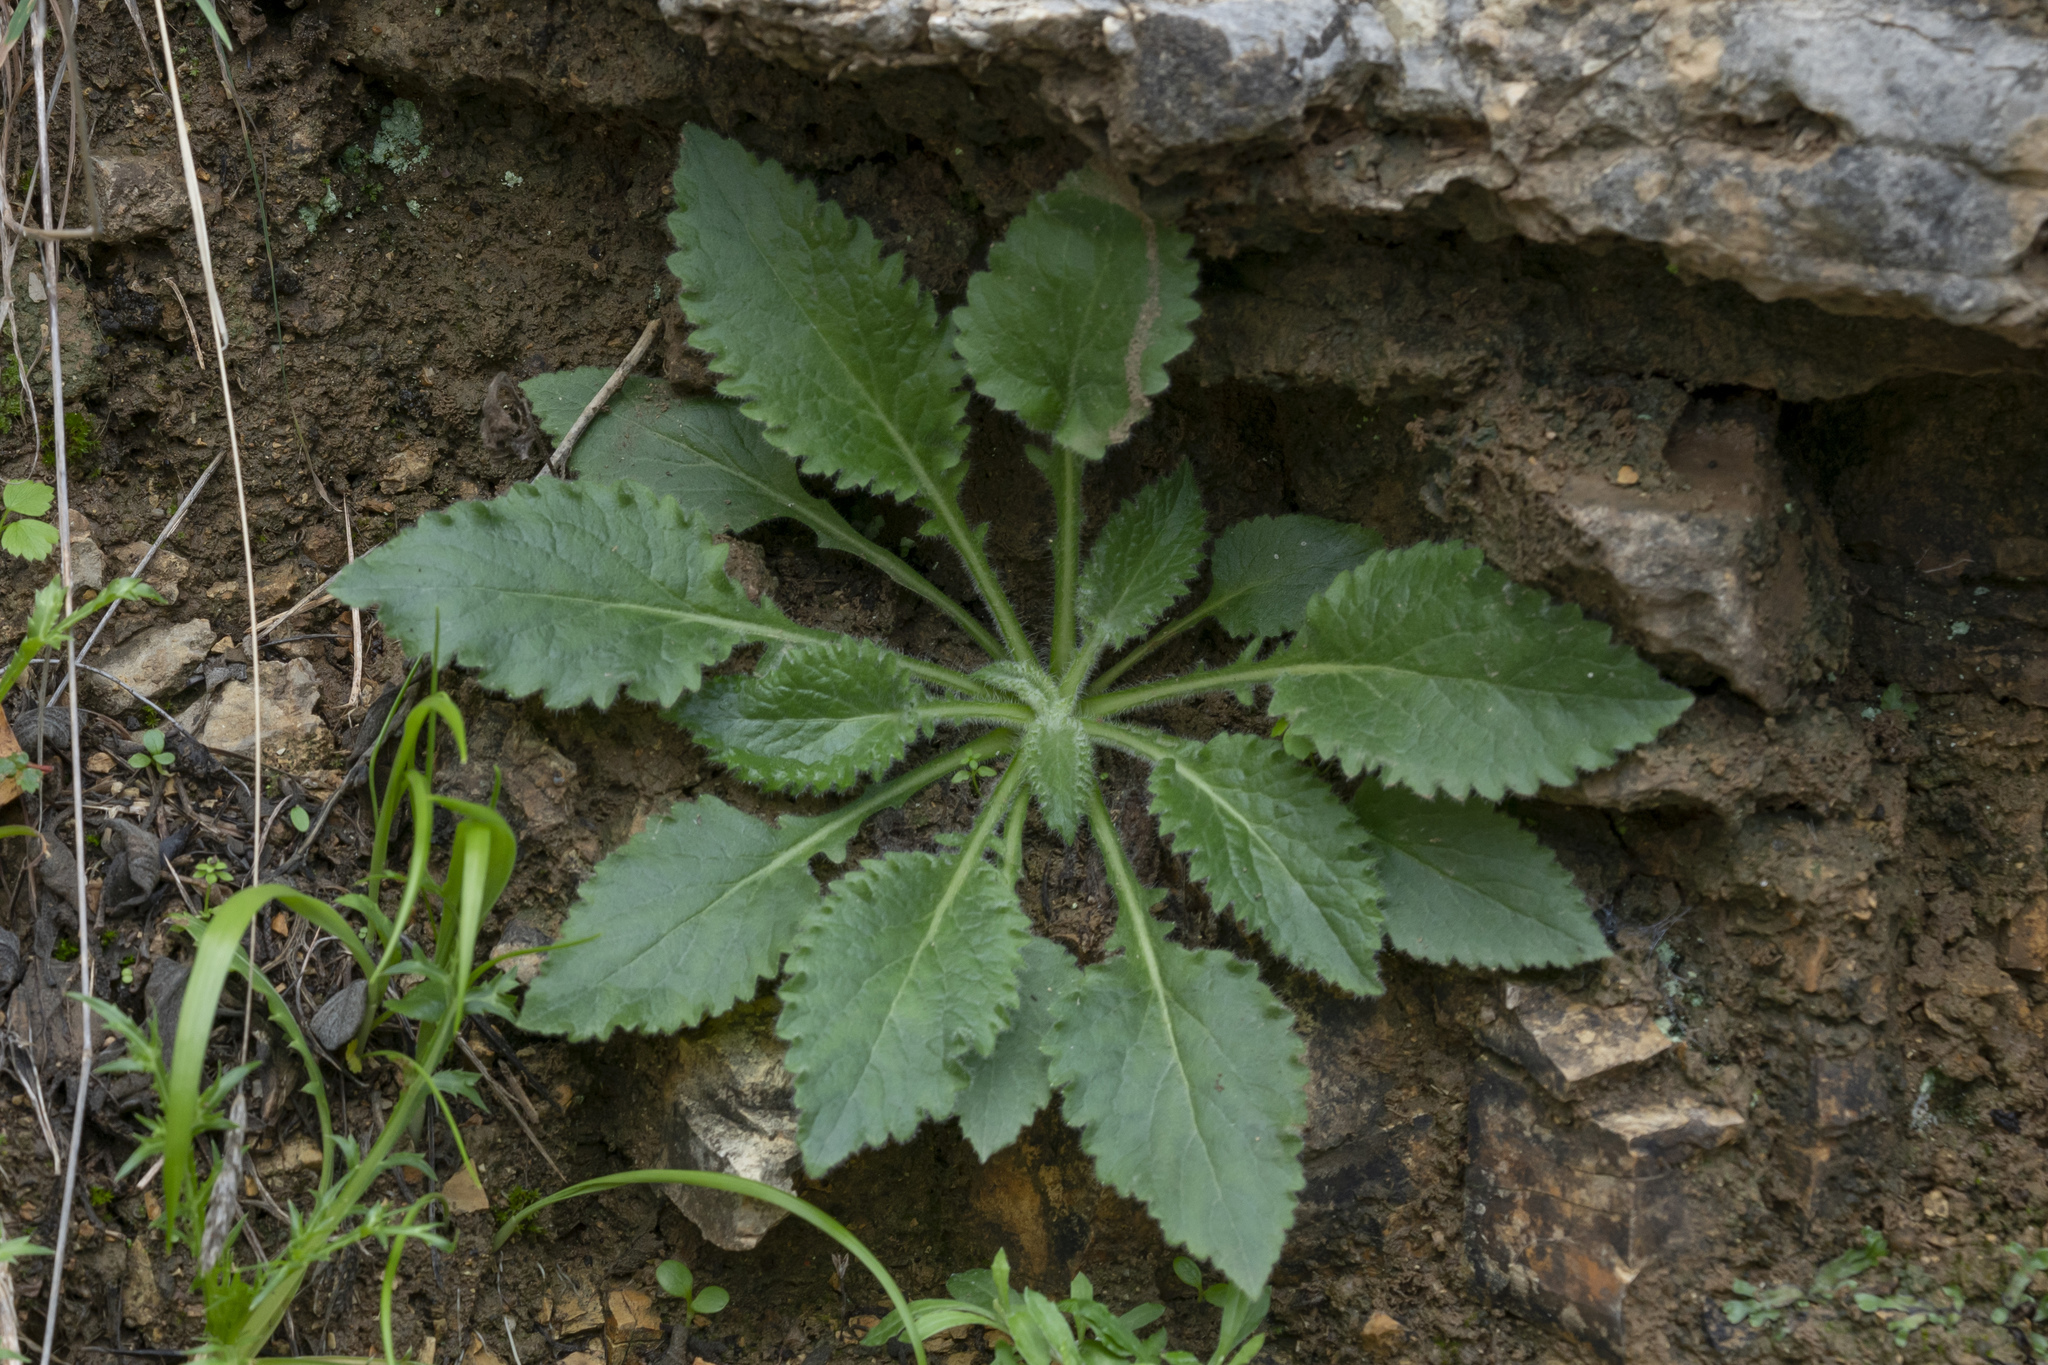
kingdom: Plantae
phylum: Tracheophyta
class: Magnoliopsida
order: Asterales
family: Campanulaceae
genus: Campanula
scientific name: Campanula hagielia
